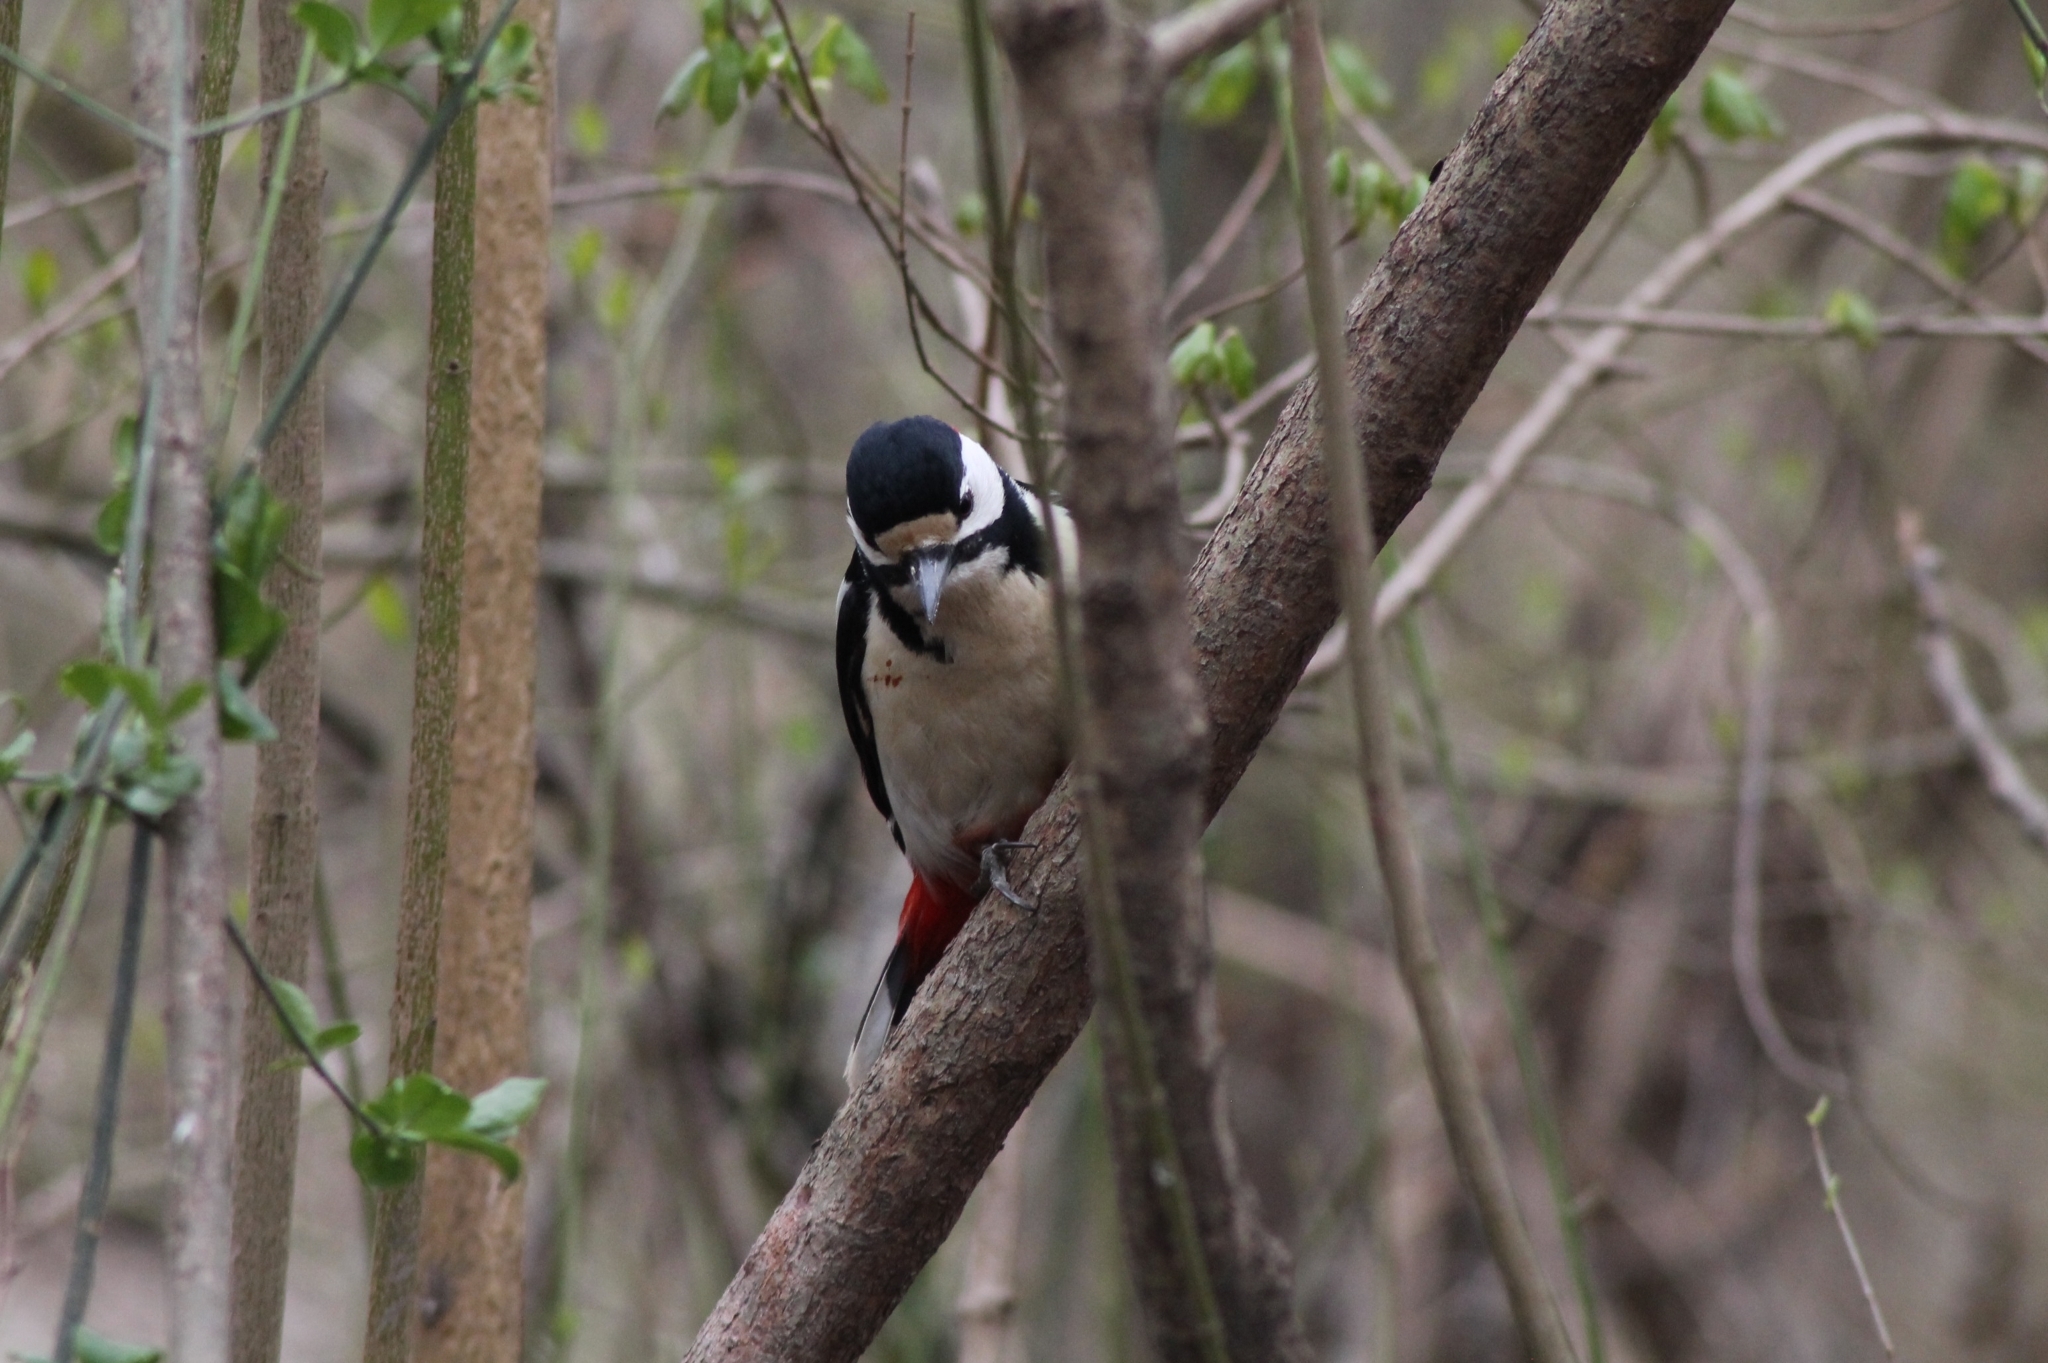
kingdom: Animalia
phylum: Chordata
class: Aves
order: Piciformes
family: Picidae
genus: Dendrocopos
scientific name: Dendrocopos major
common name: Great spotted woodpecker
